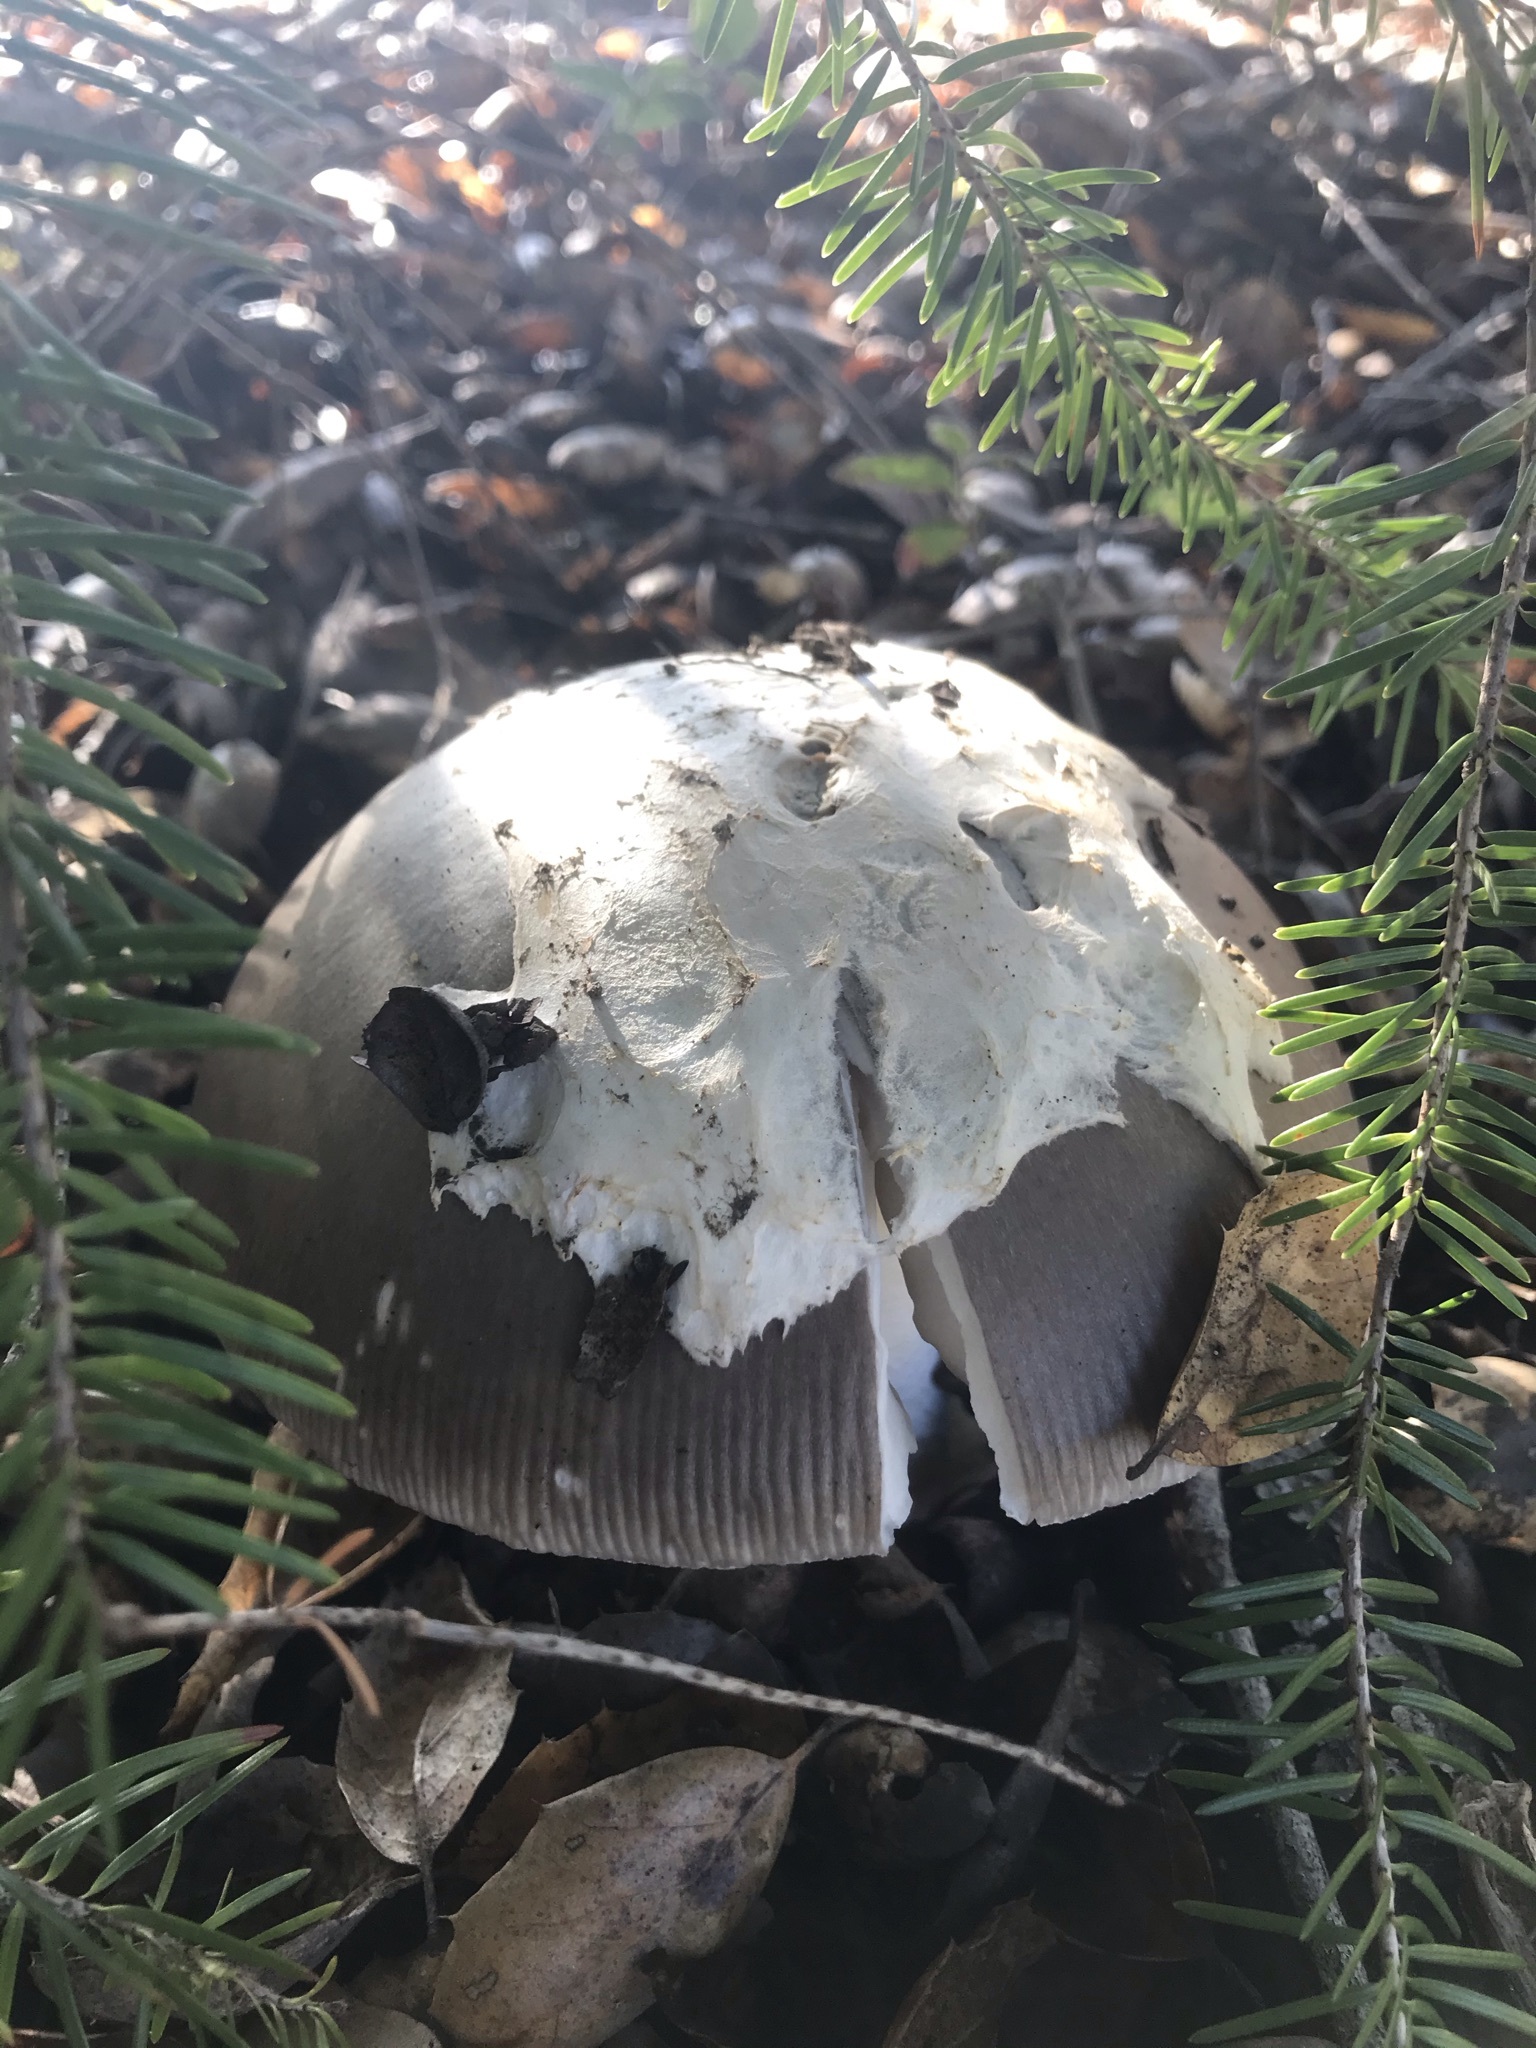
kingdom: Fungi
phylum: Basidiomycota
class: Agaricomycetes
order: Agaricales
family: Amanitaceae
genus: Amanita
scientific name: Amanita protecta
